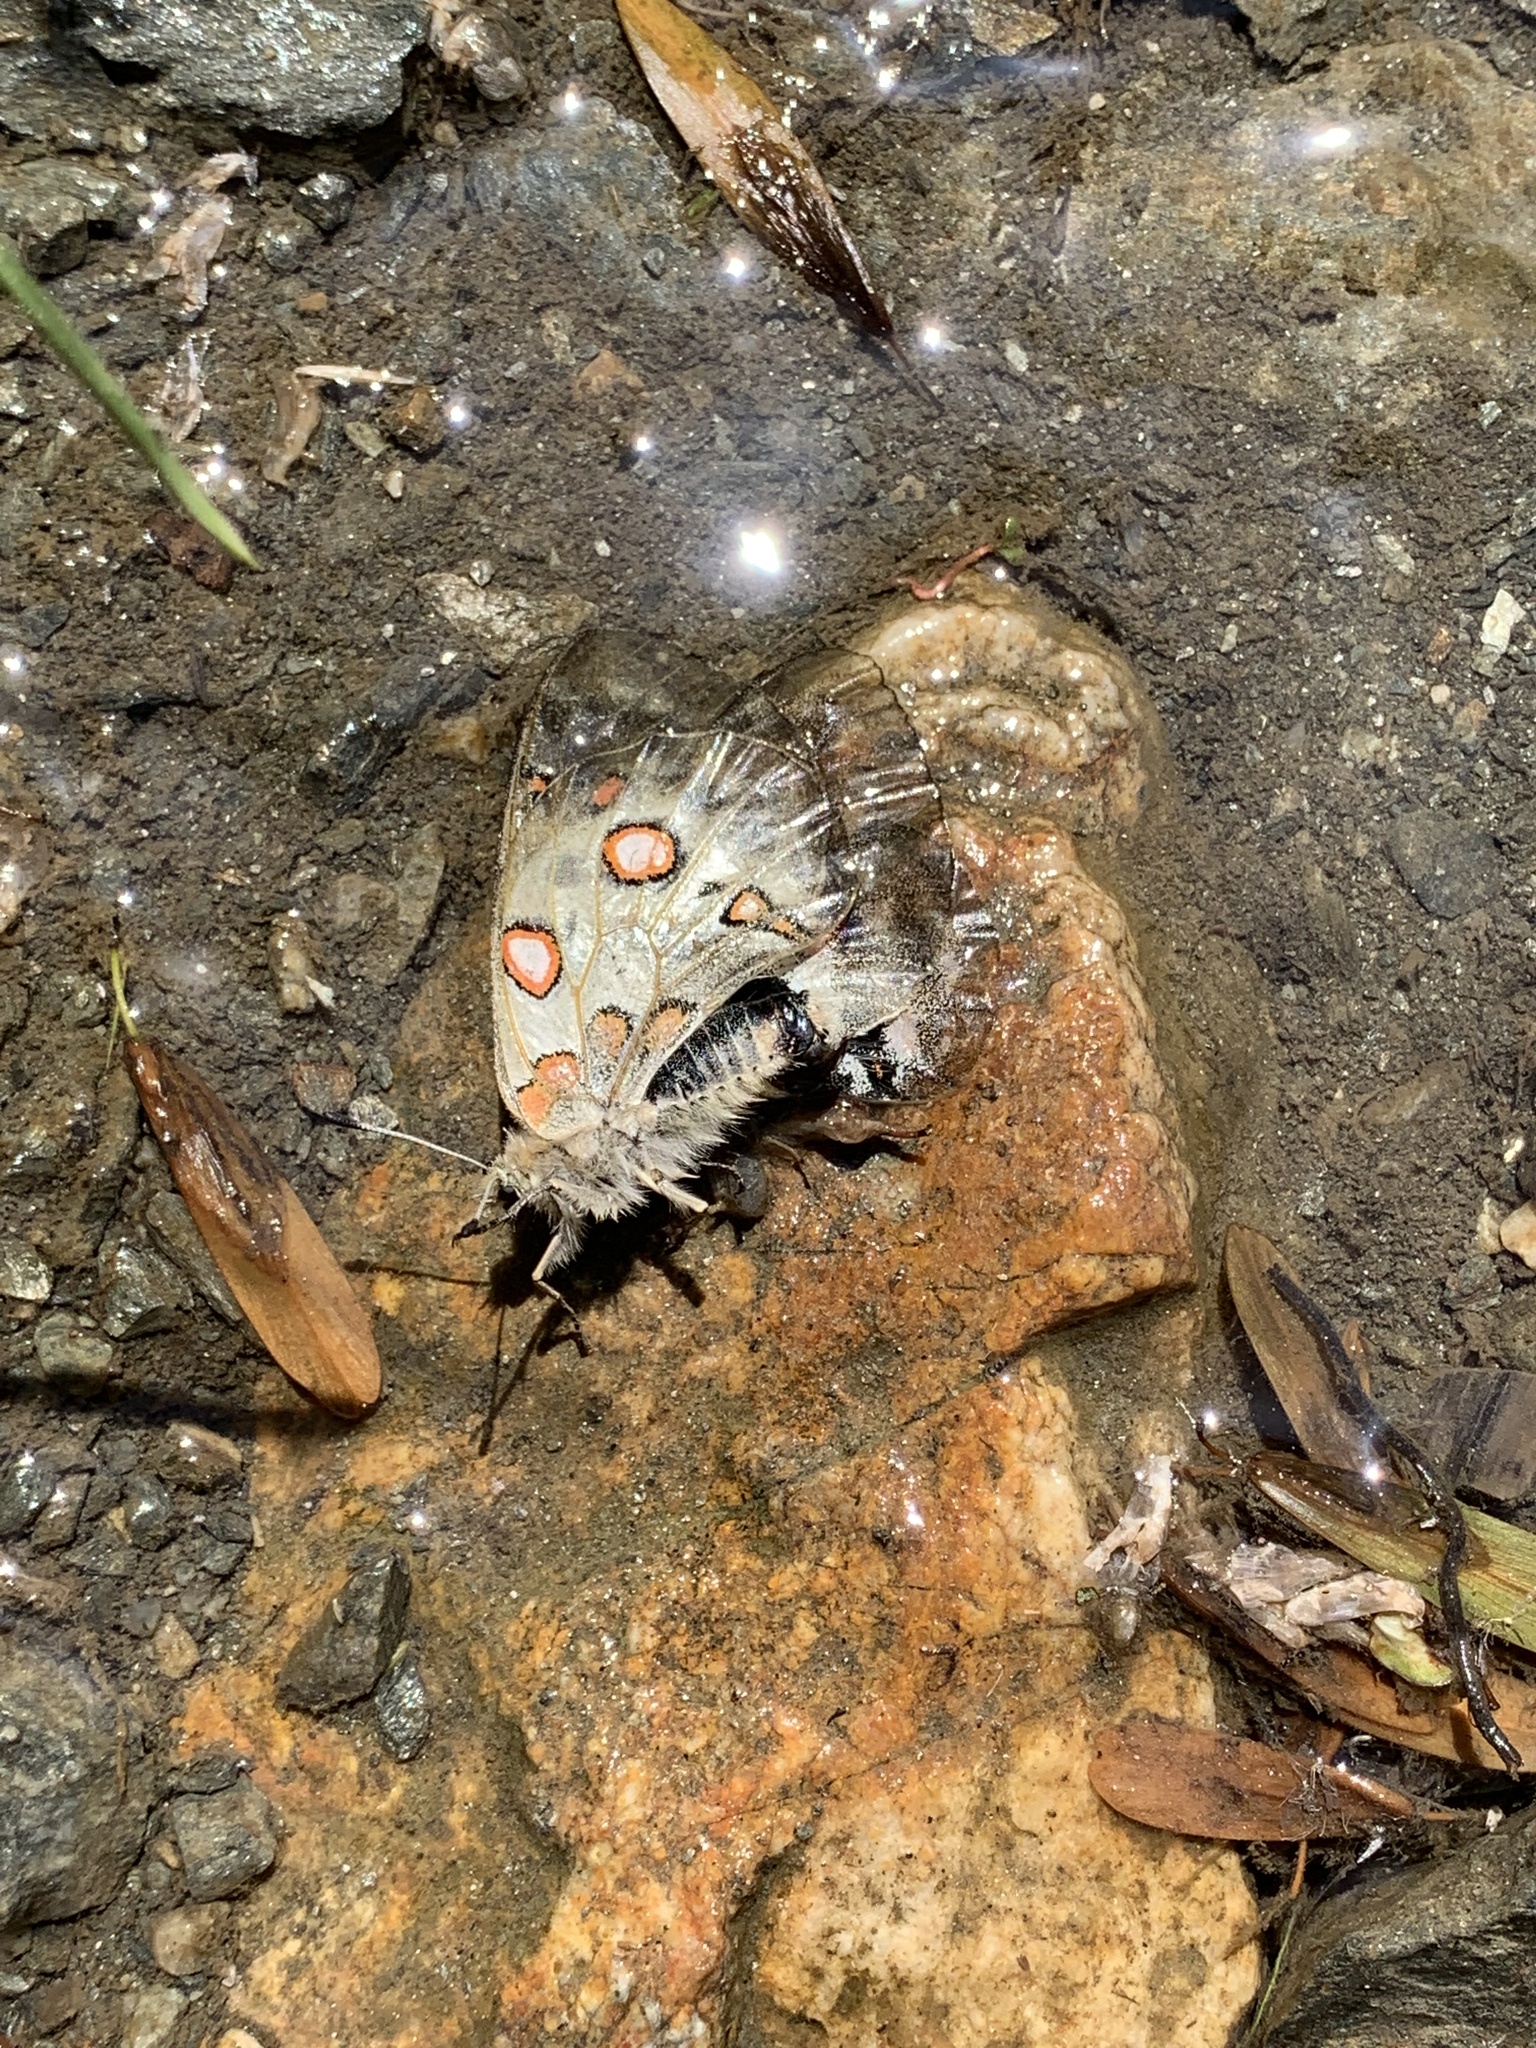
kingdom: Animalia
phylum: Arthropoda
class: Insecta
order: Lepidoptera
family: Papilionidae
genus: Parnassius
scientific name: Parnassius apollo
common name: Apollo
